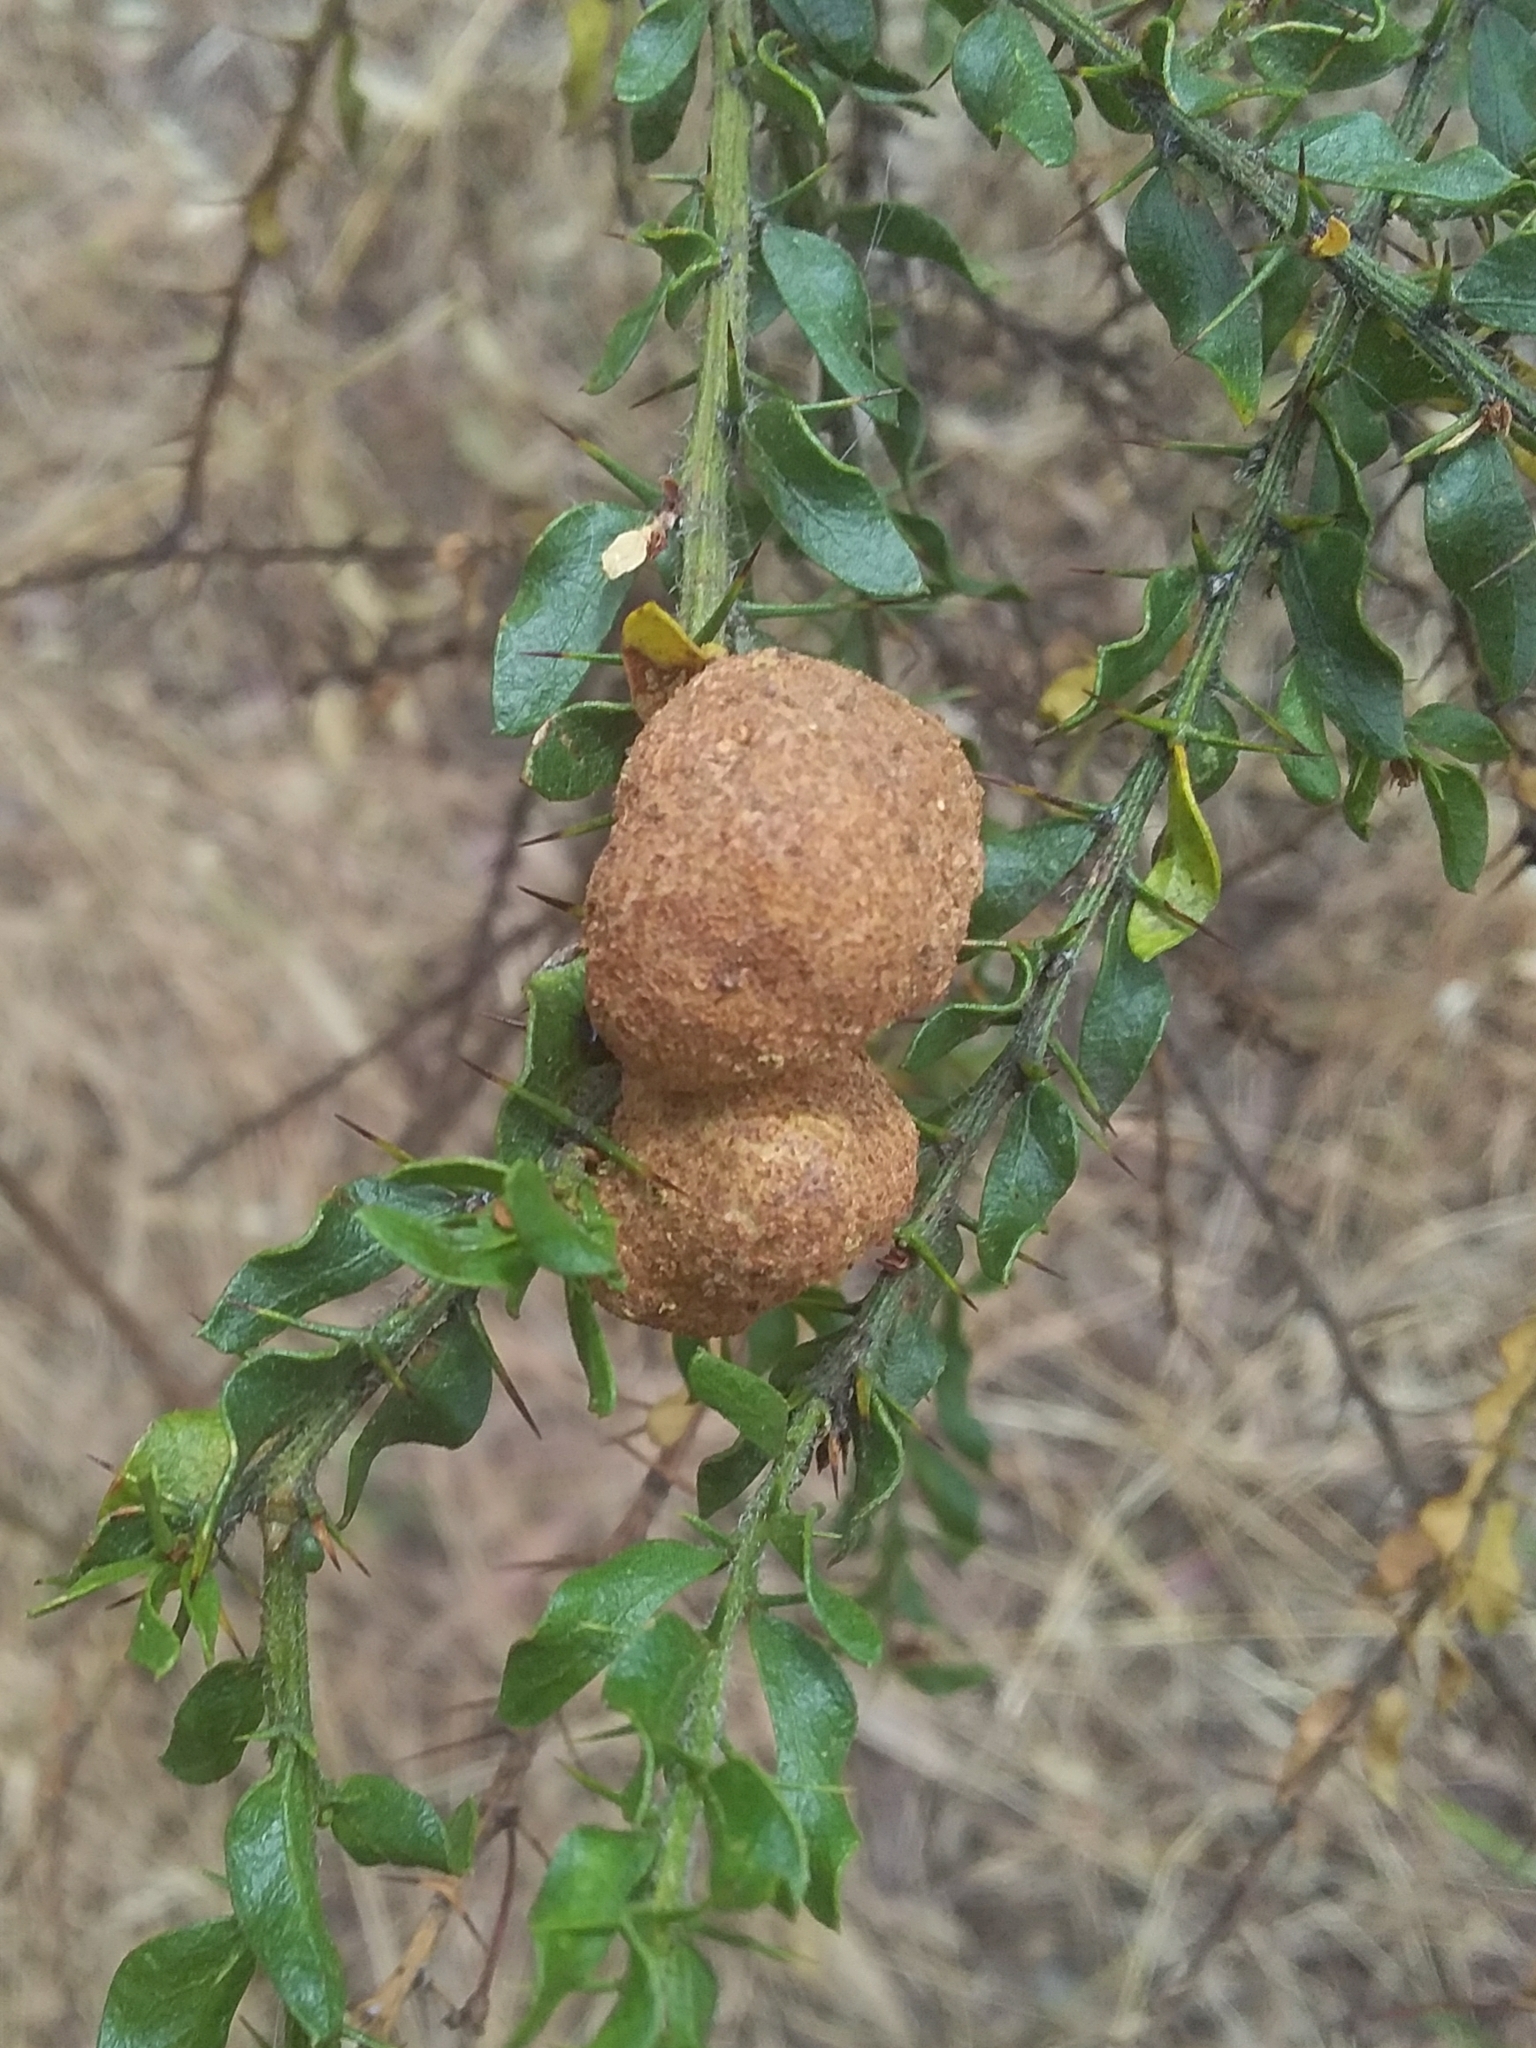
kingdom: Fungi
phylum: Basidiomycota
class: Pucciniomycetes
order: Pucciniales
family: Uromycladiaceae
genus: Uromycladium
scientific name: Uromycladium paradoxae
